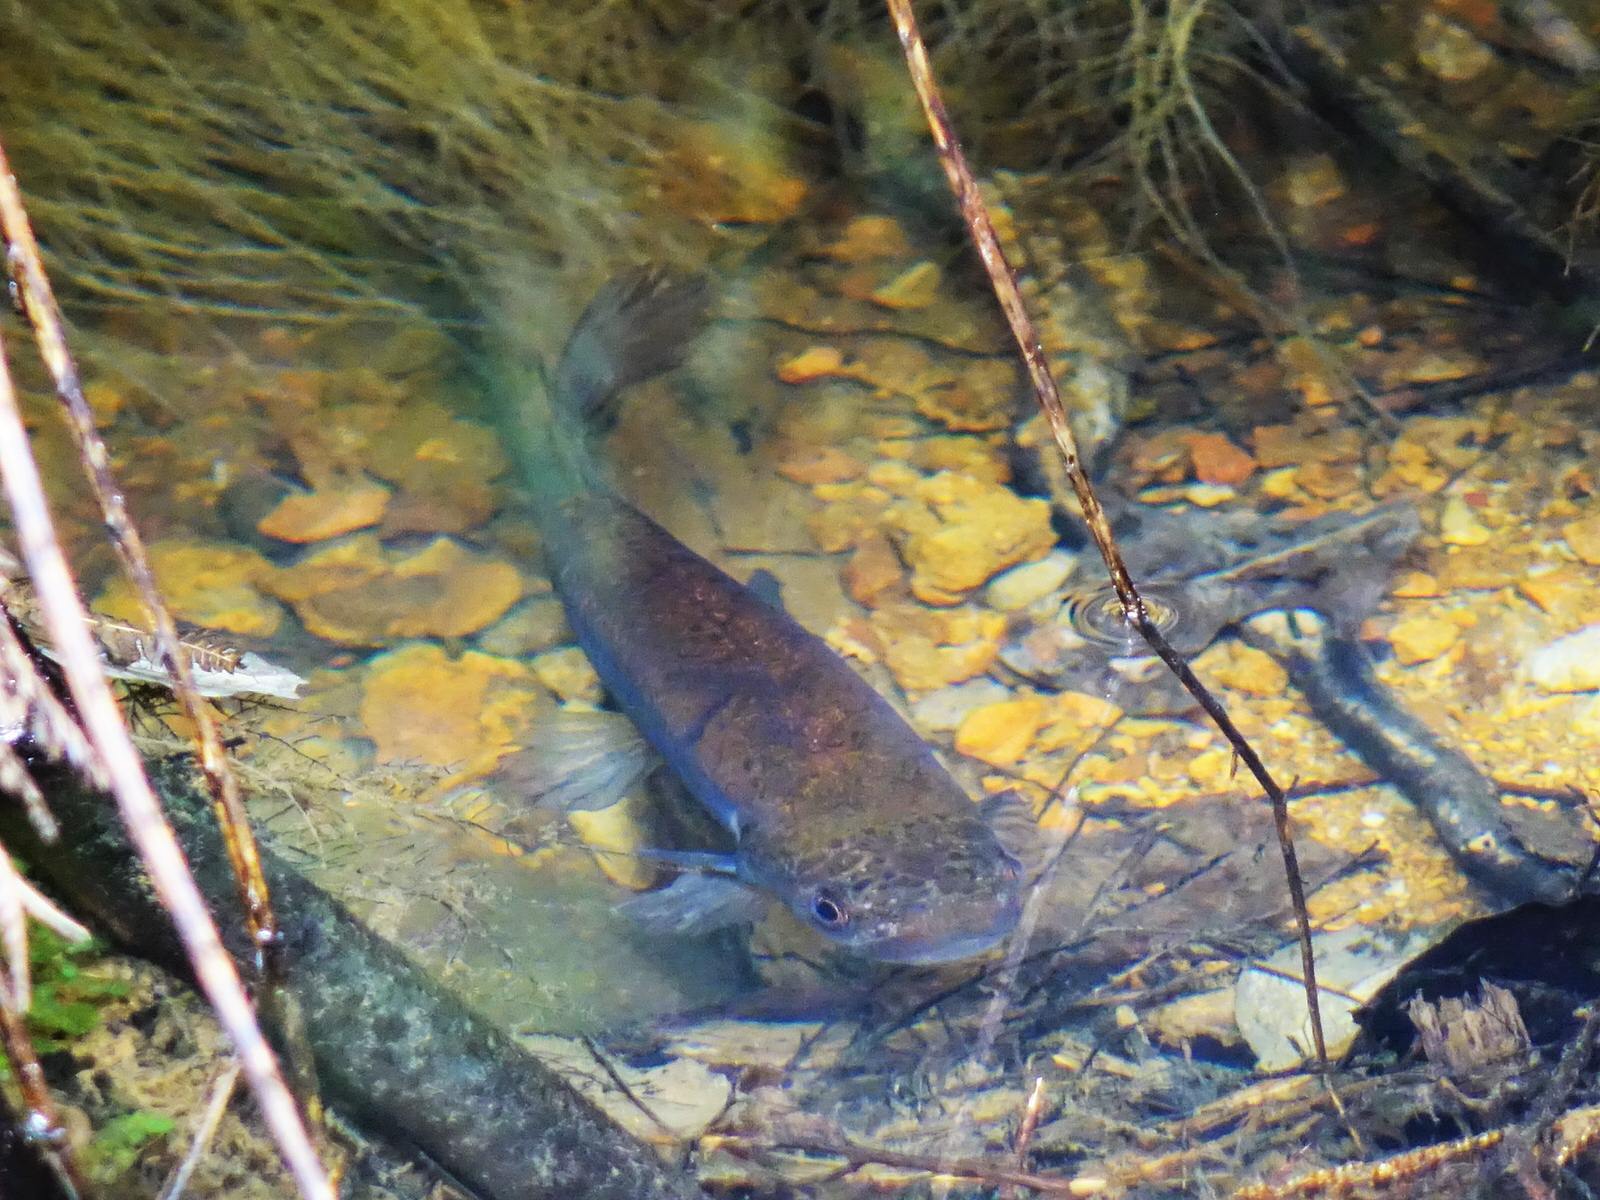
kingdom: Animalia
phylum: Chordata
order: Osmeriformes
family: Galaxiidae
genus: Galaxias
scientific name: Galaxias fasciatus
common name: Banded kokopu
